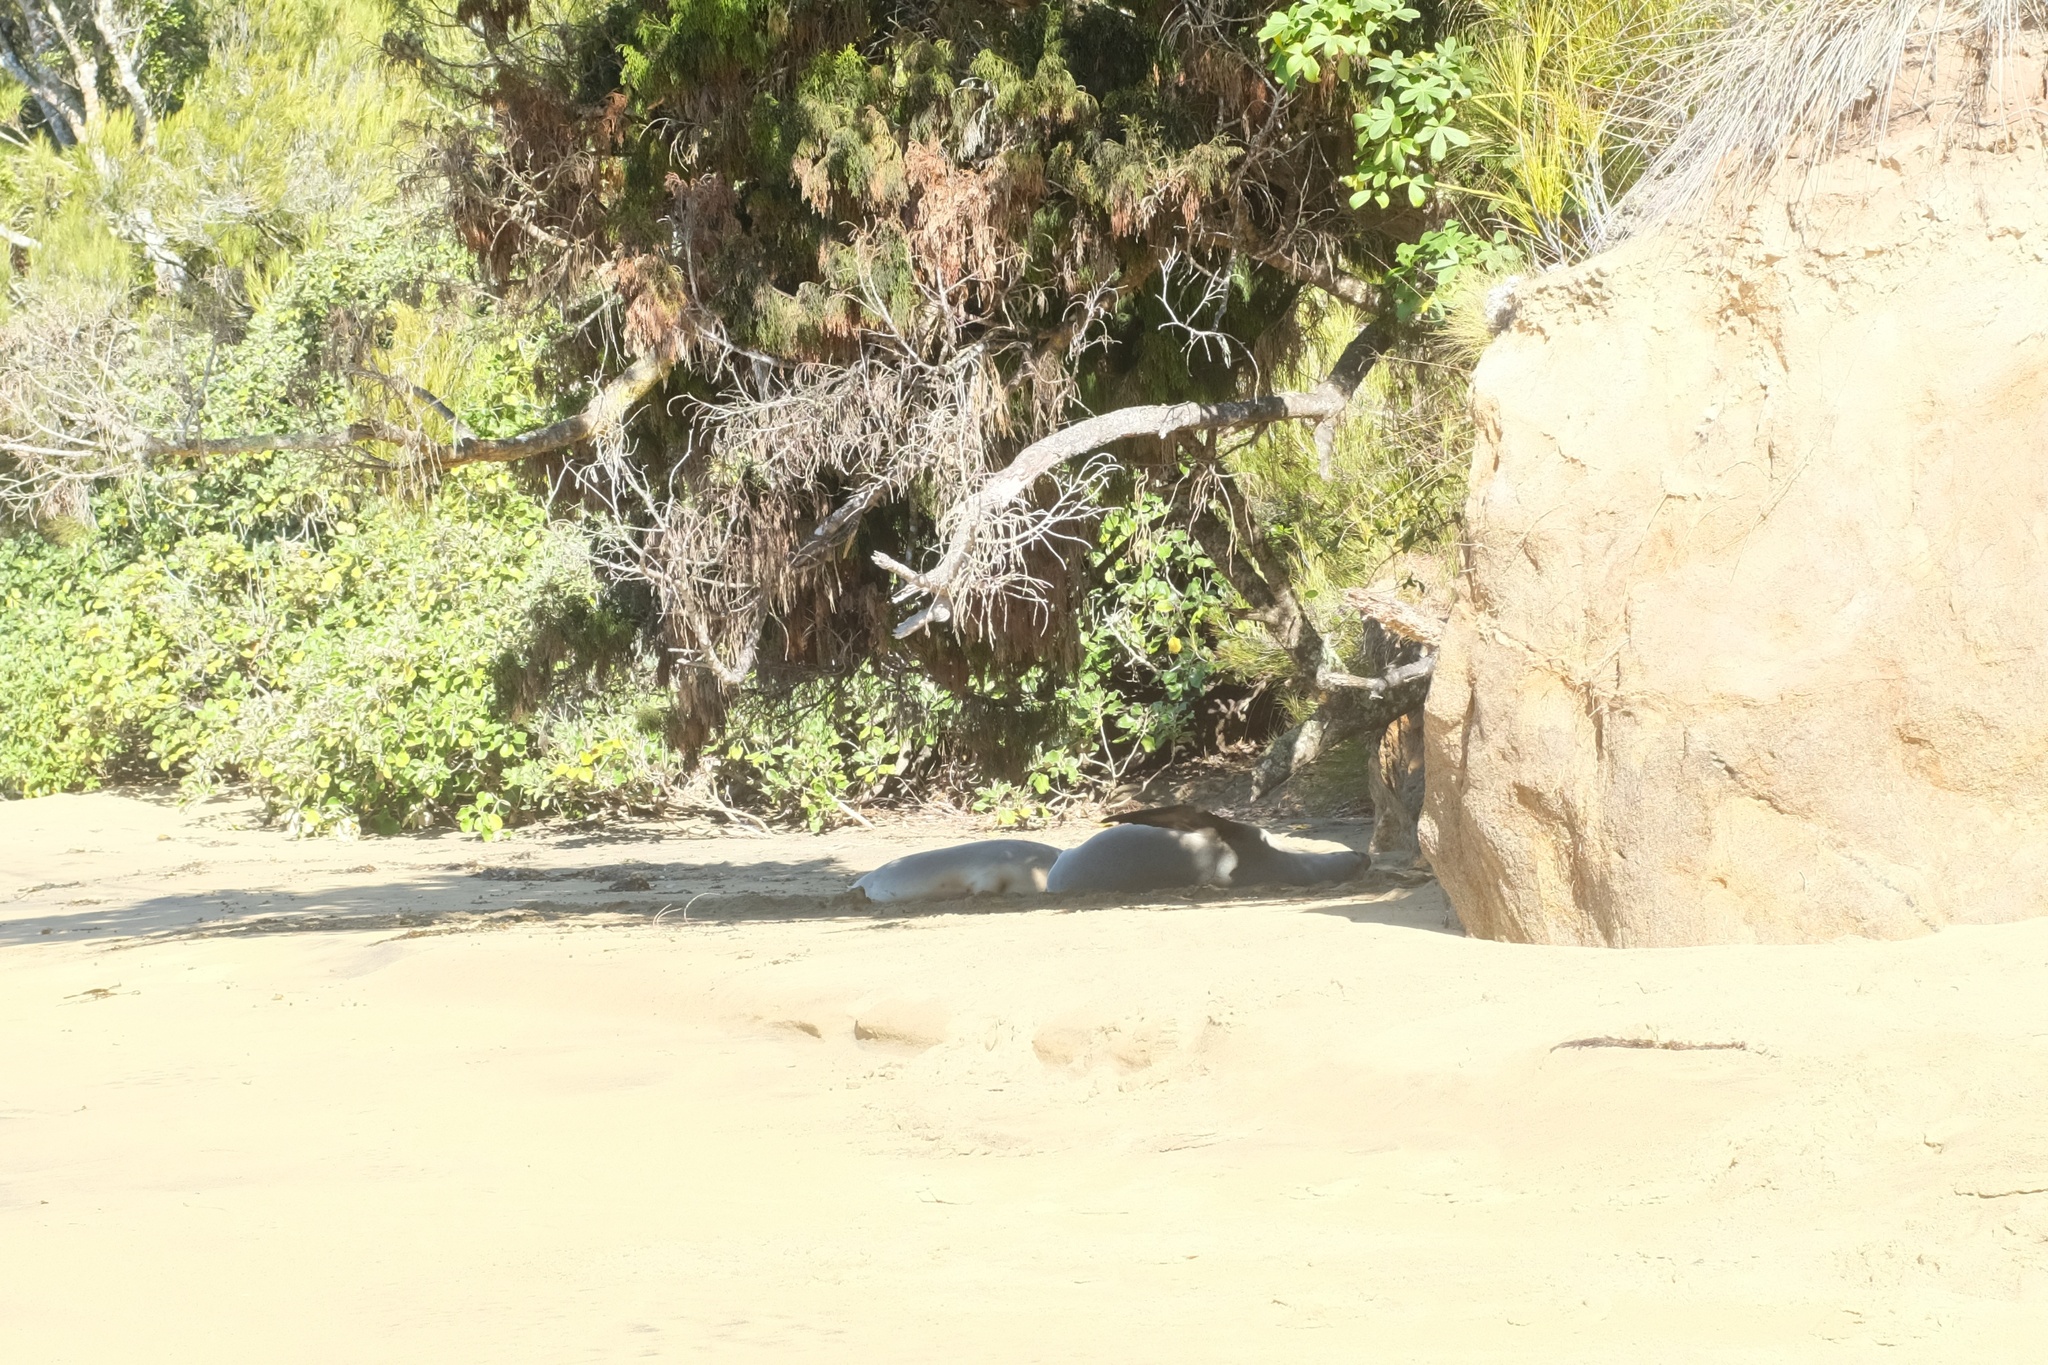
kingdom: Animalia
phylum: Chordata
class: Mammalia
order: Carnivora
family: Otariidae
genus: Phocarctos
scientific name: Phocarctos hookeri
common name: New zealand sea lion
